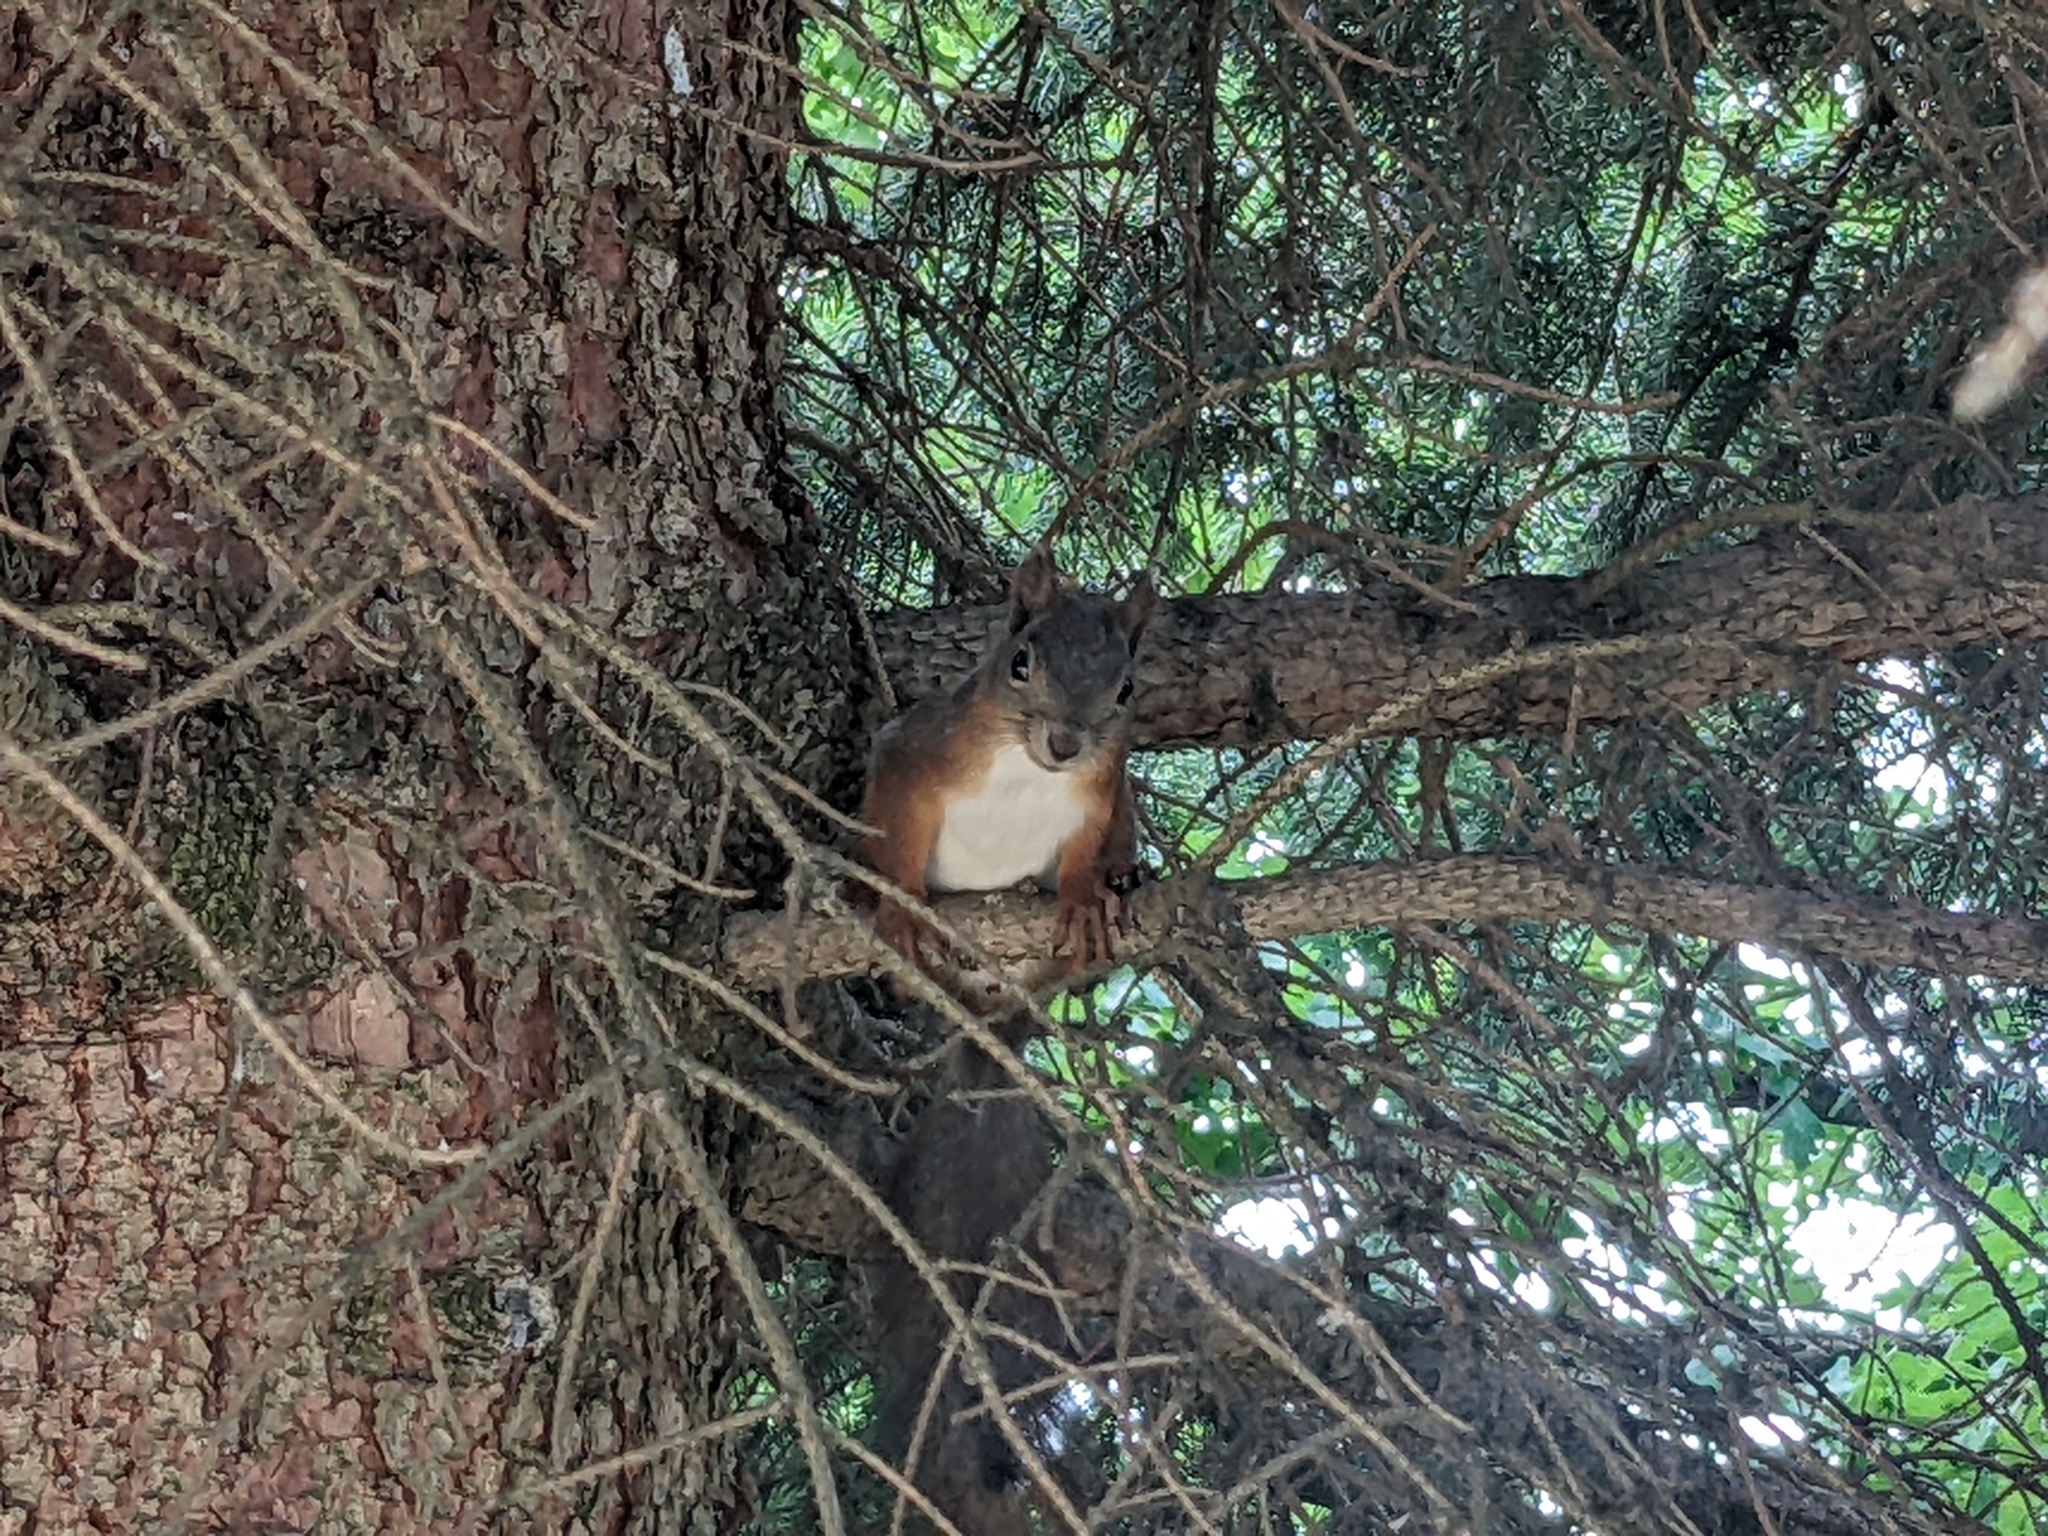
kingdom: Animalia
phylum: Chordata
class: Mammalia
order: Rodentia
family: Sciuridae
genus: Sciurus
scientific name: Sciurus vulgaris
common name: Eurasian red squirrel
